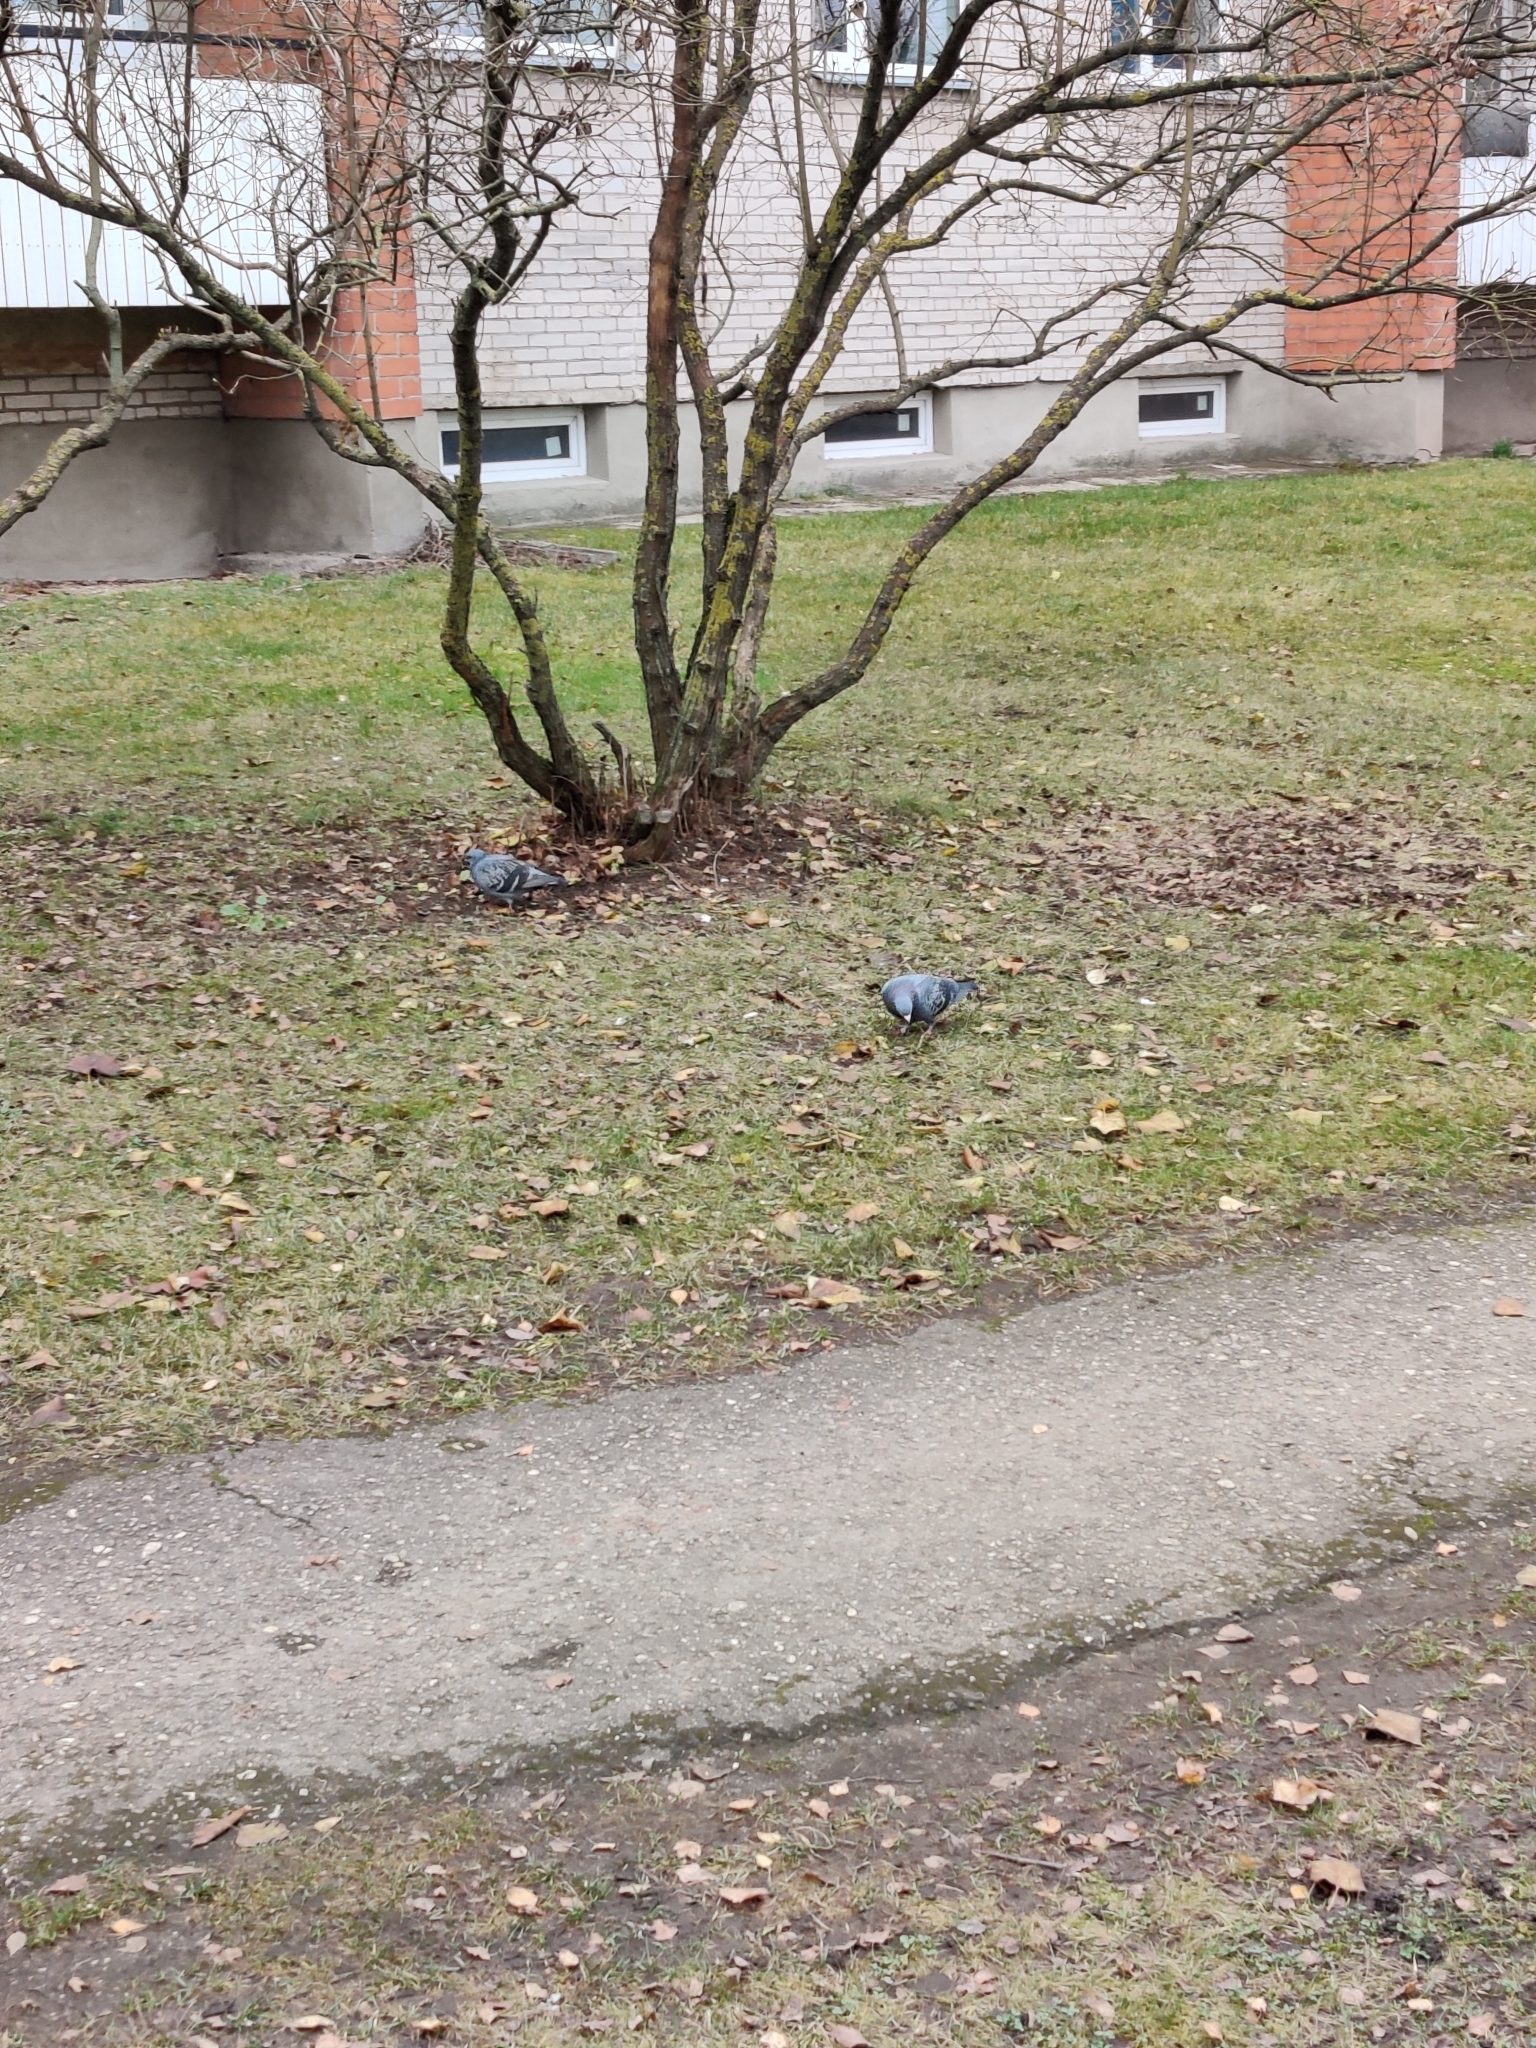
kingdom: Animalia
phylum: Chordata
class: Aves
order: Columbiformes
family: Columbidae
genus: Columba
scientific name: Columba livia
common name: Rock pigeon
